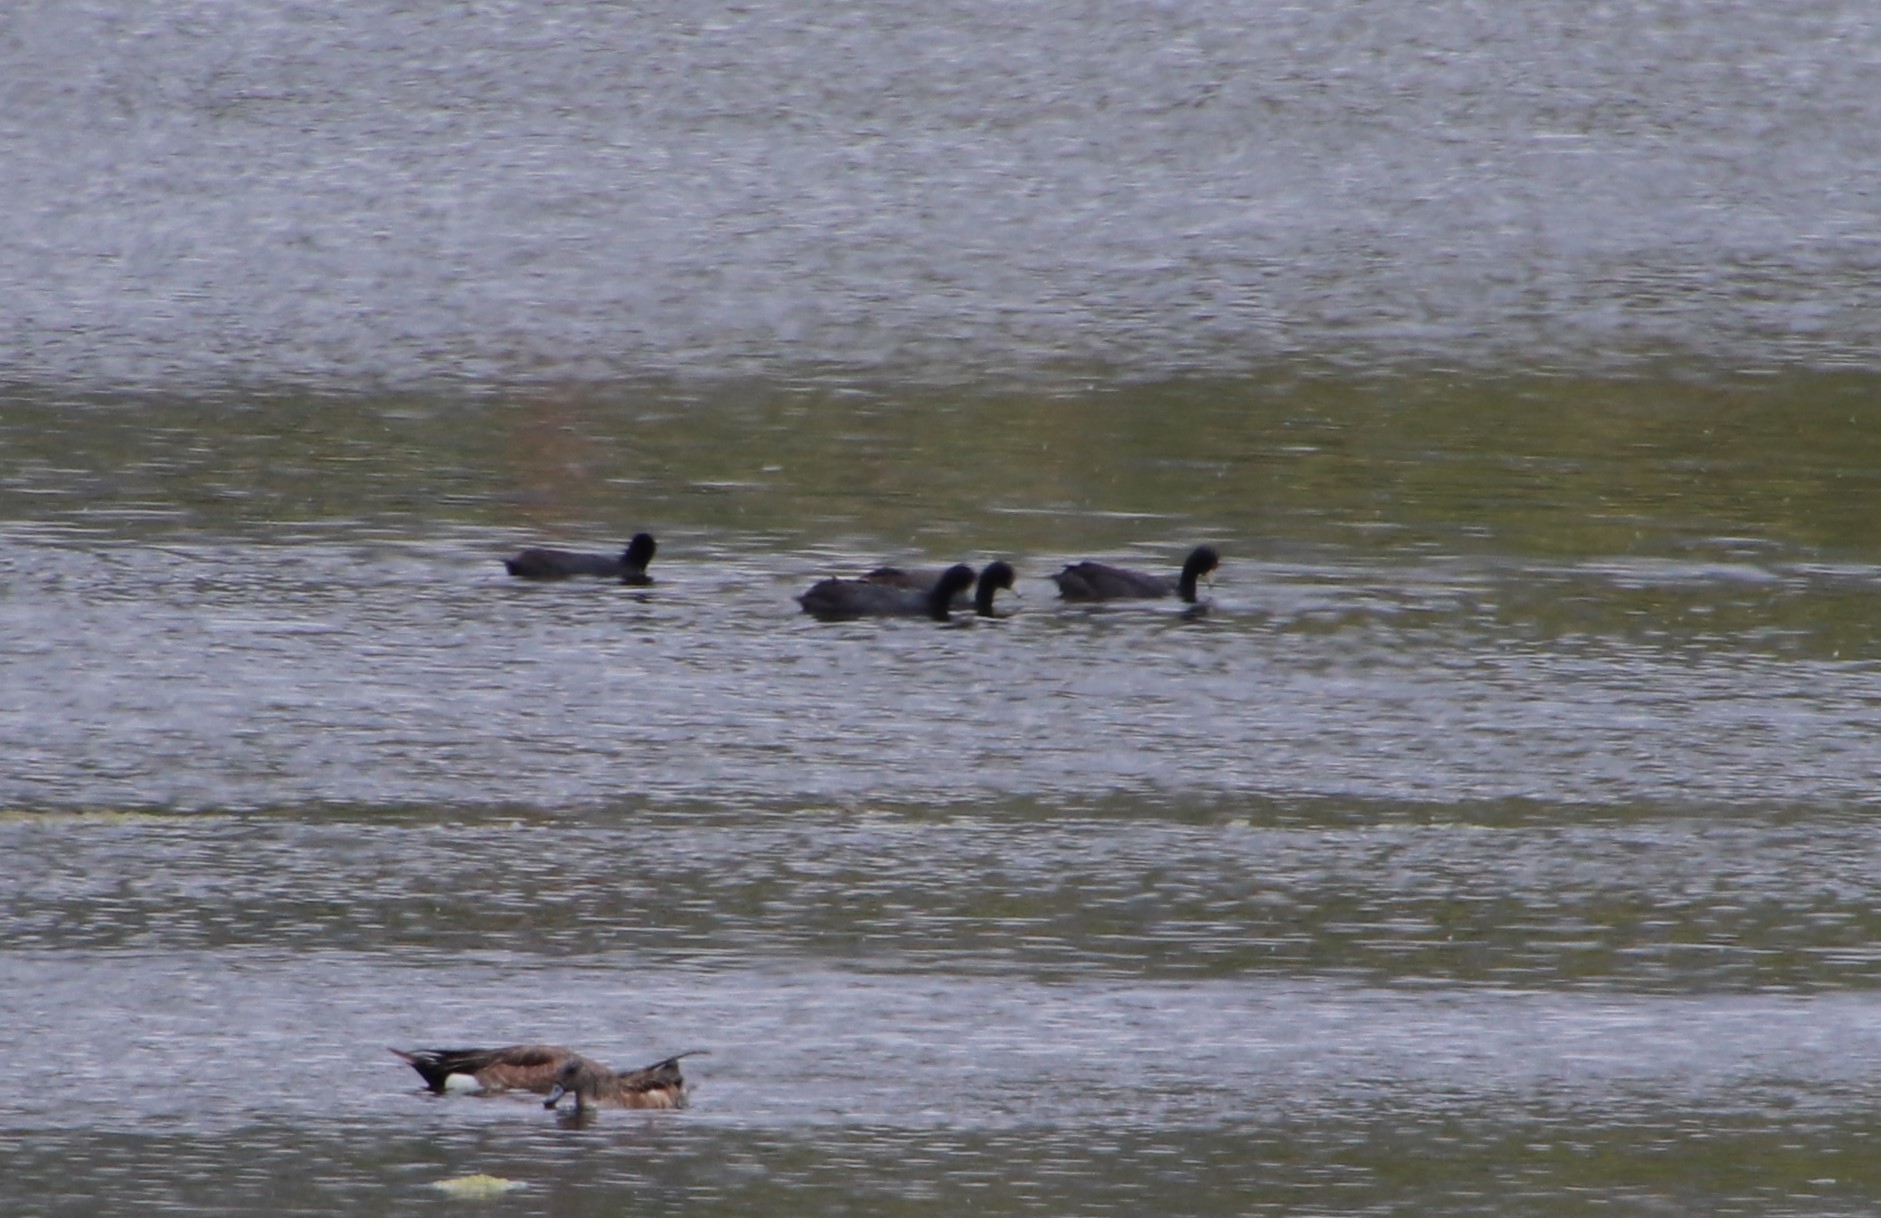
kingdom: Animalia
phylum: Chordata
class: Aves
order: Gruiformes
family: Rallidae
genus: Fulica
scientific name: Fulica americana
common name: American coot
